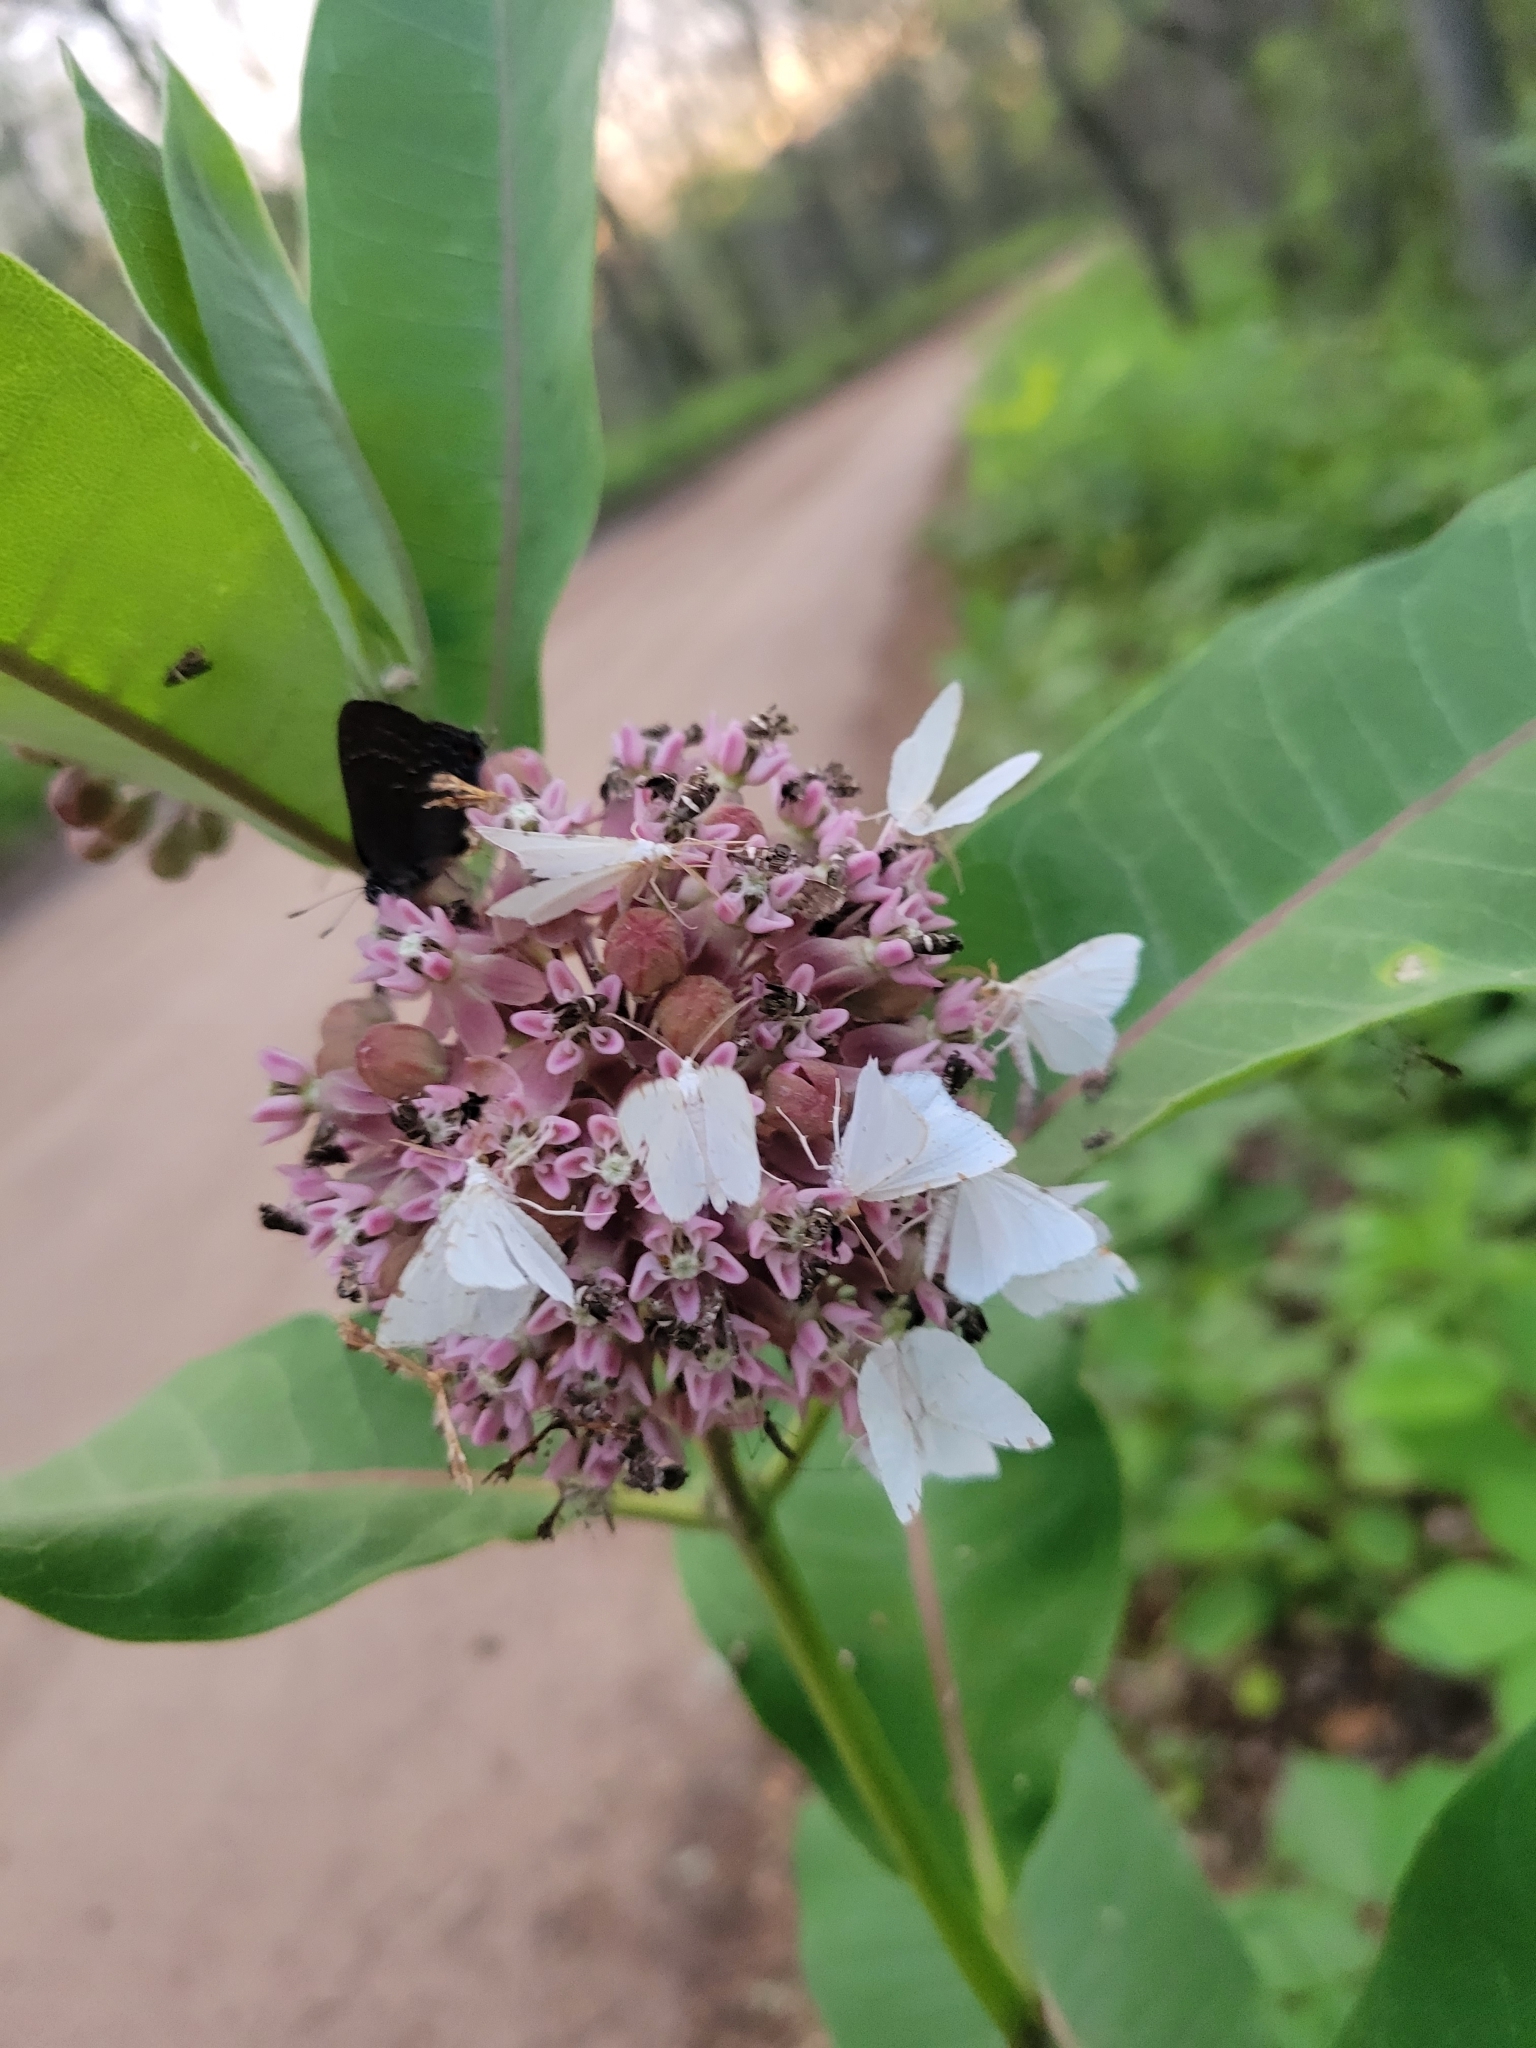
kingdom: Plantae
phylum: Tracheophyta
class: Magnoliopsida
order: Gentianales
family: Apocynaceae
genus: Asclepias
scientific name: Asclepias syriaca
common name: Common milkweed
